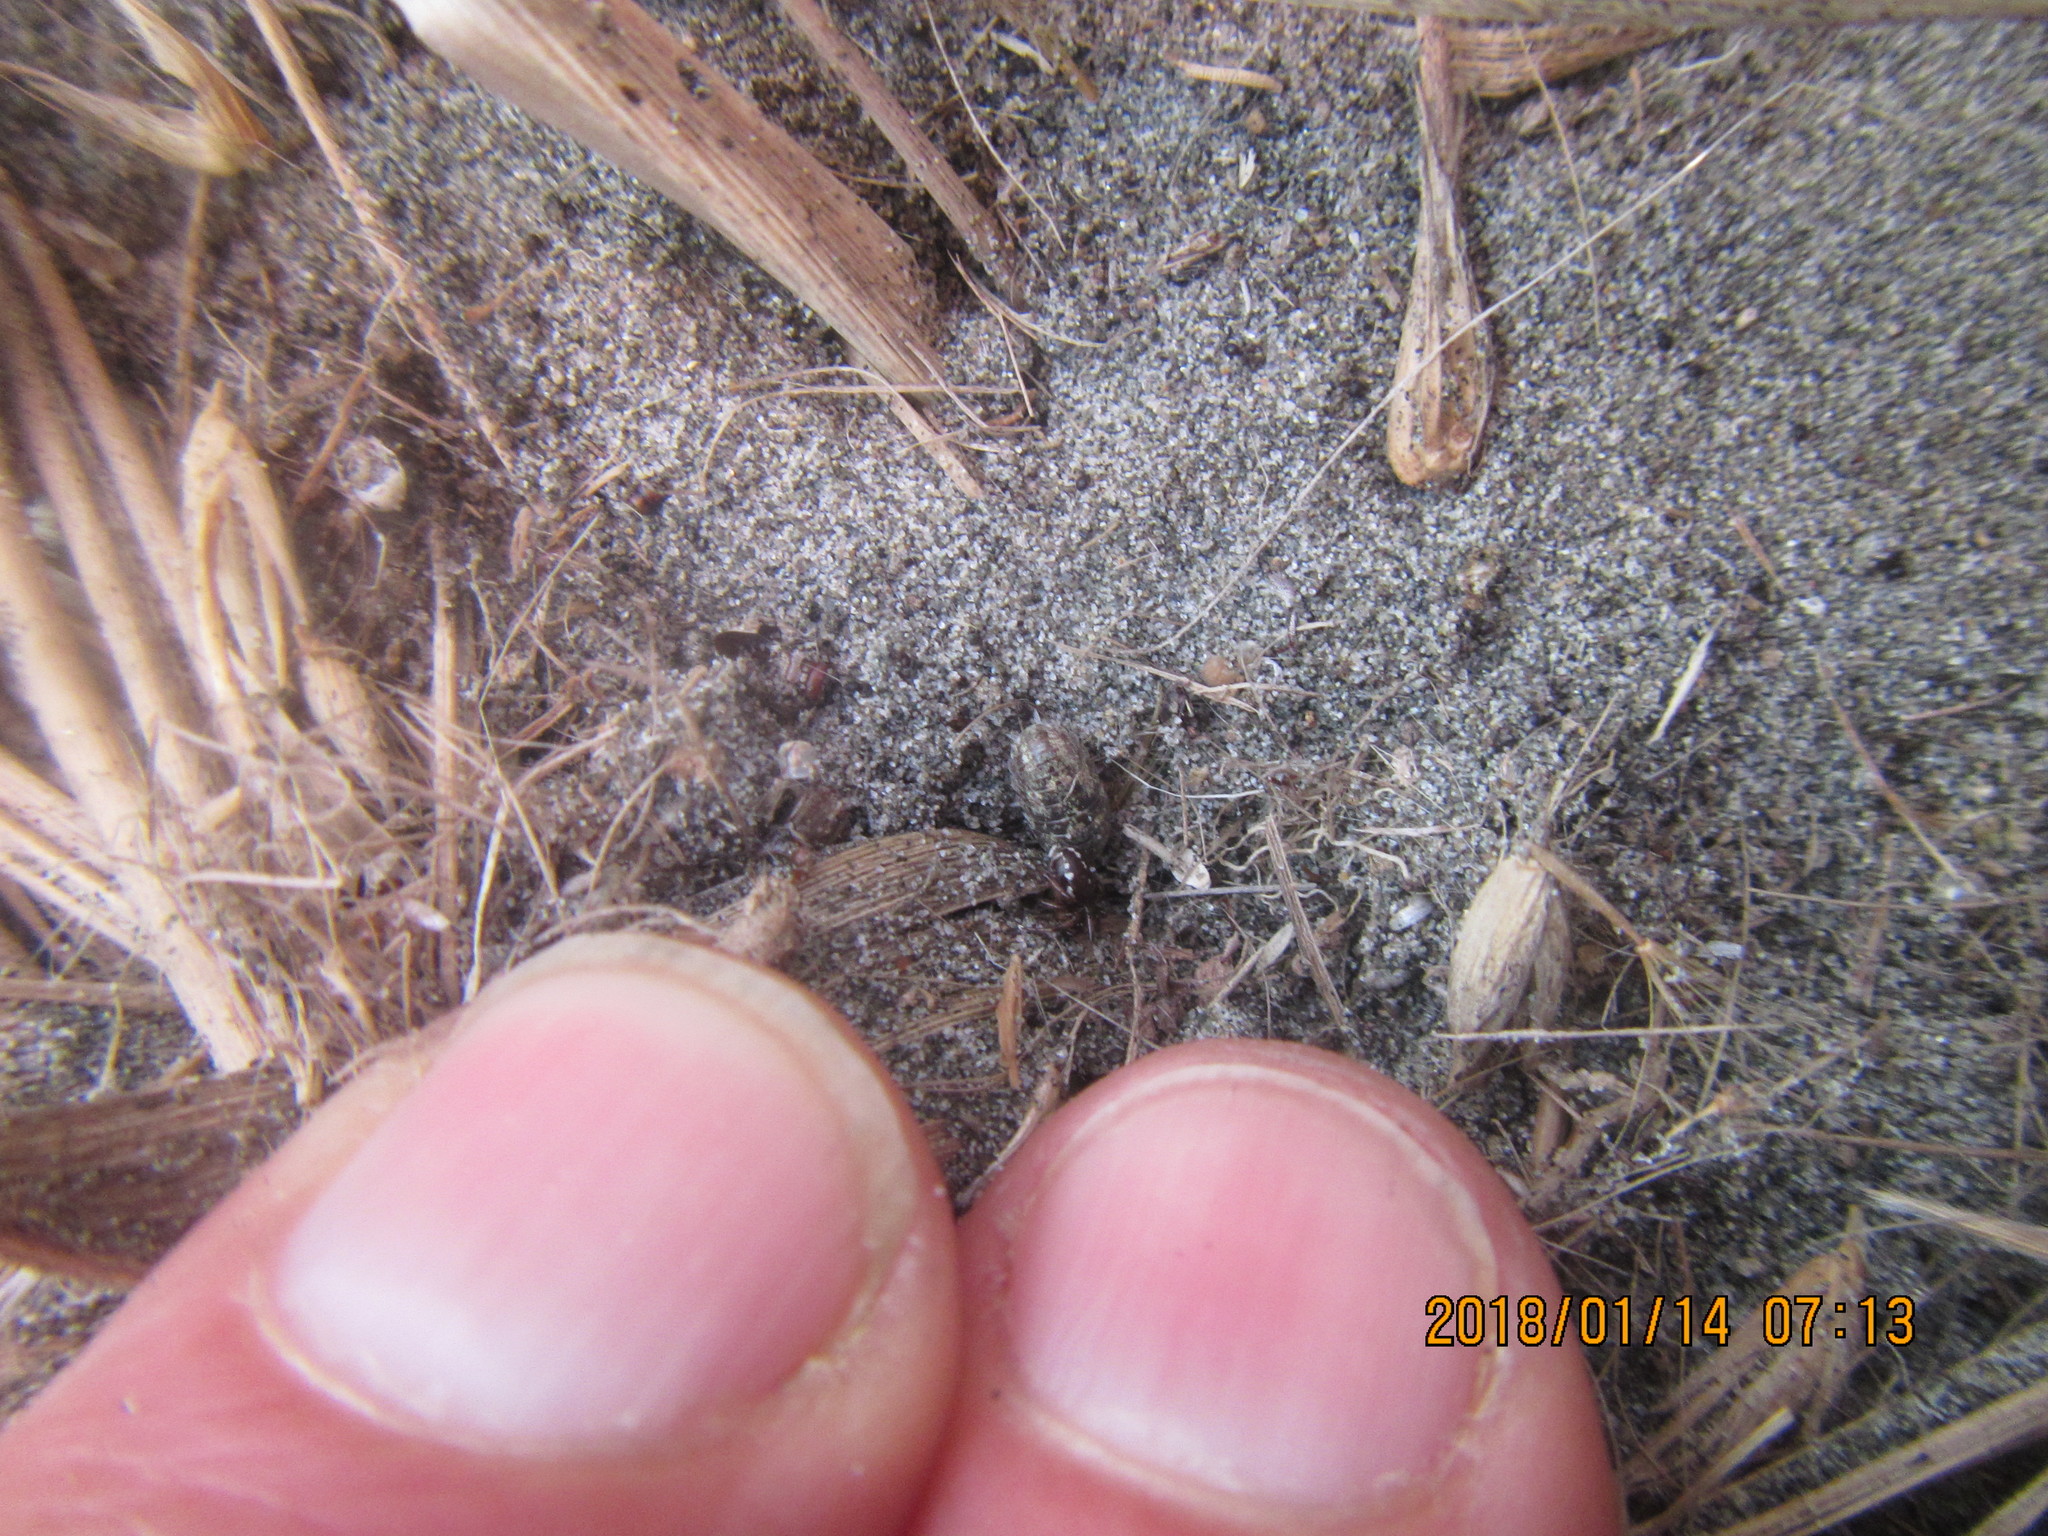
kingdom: Animalia
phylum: Arthropoda
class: Arachnida
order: Araneae
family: Theridiidae
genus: Steatoda
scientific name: Steatoda lepida
